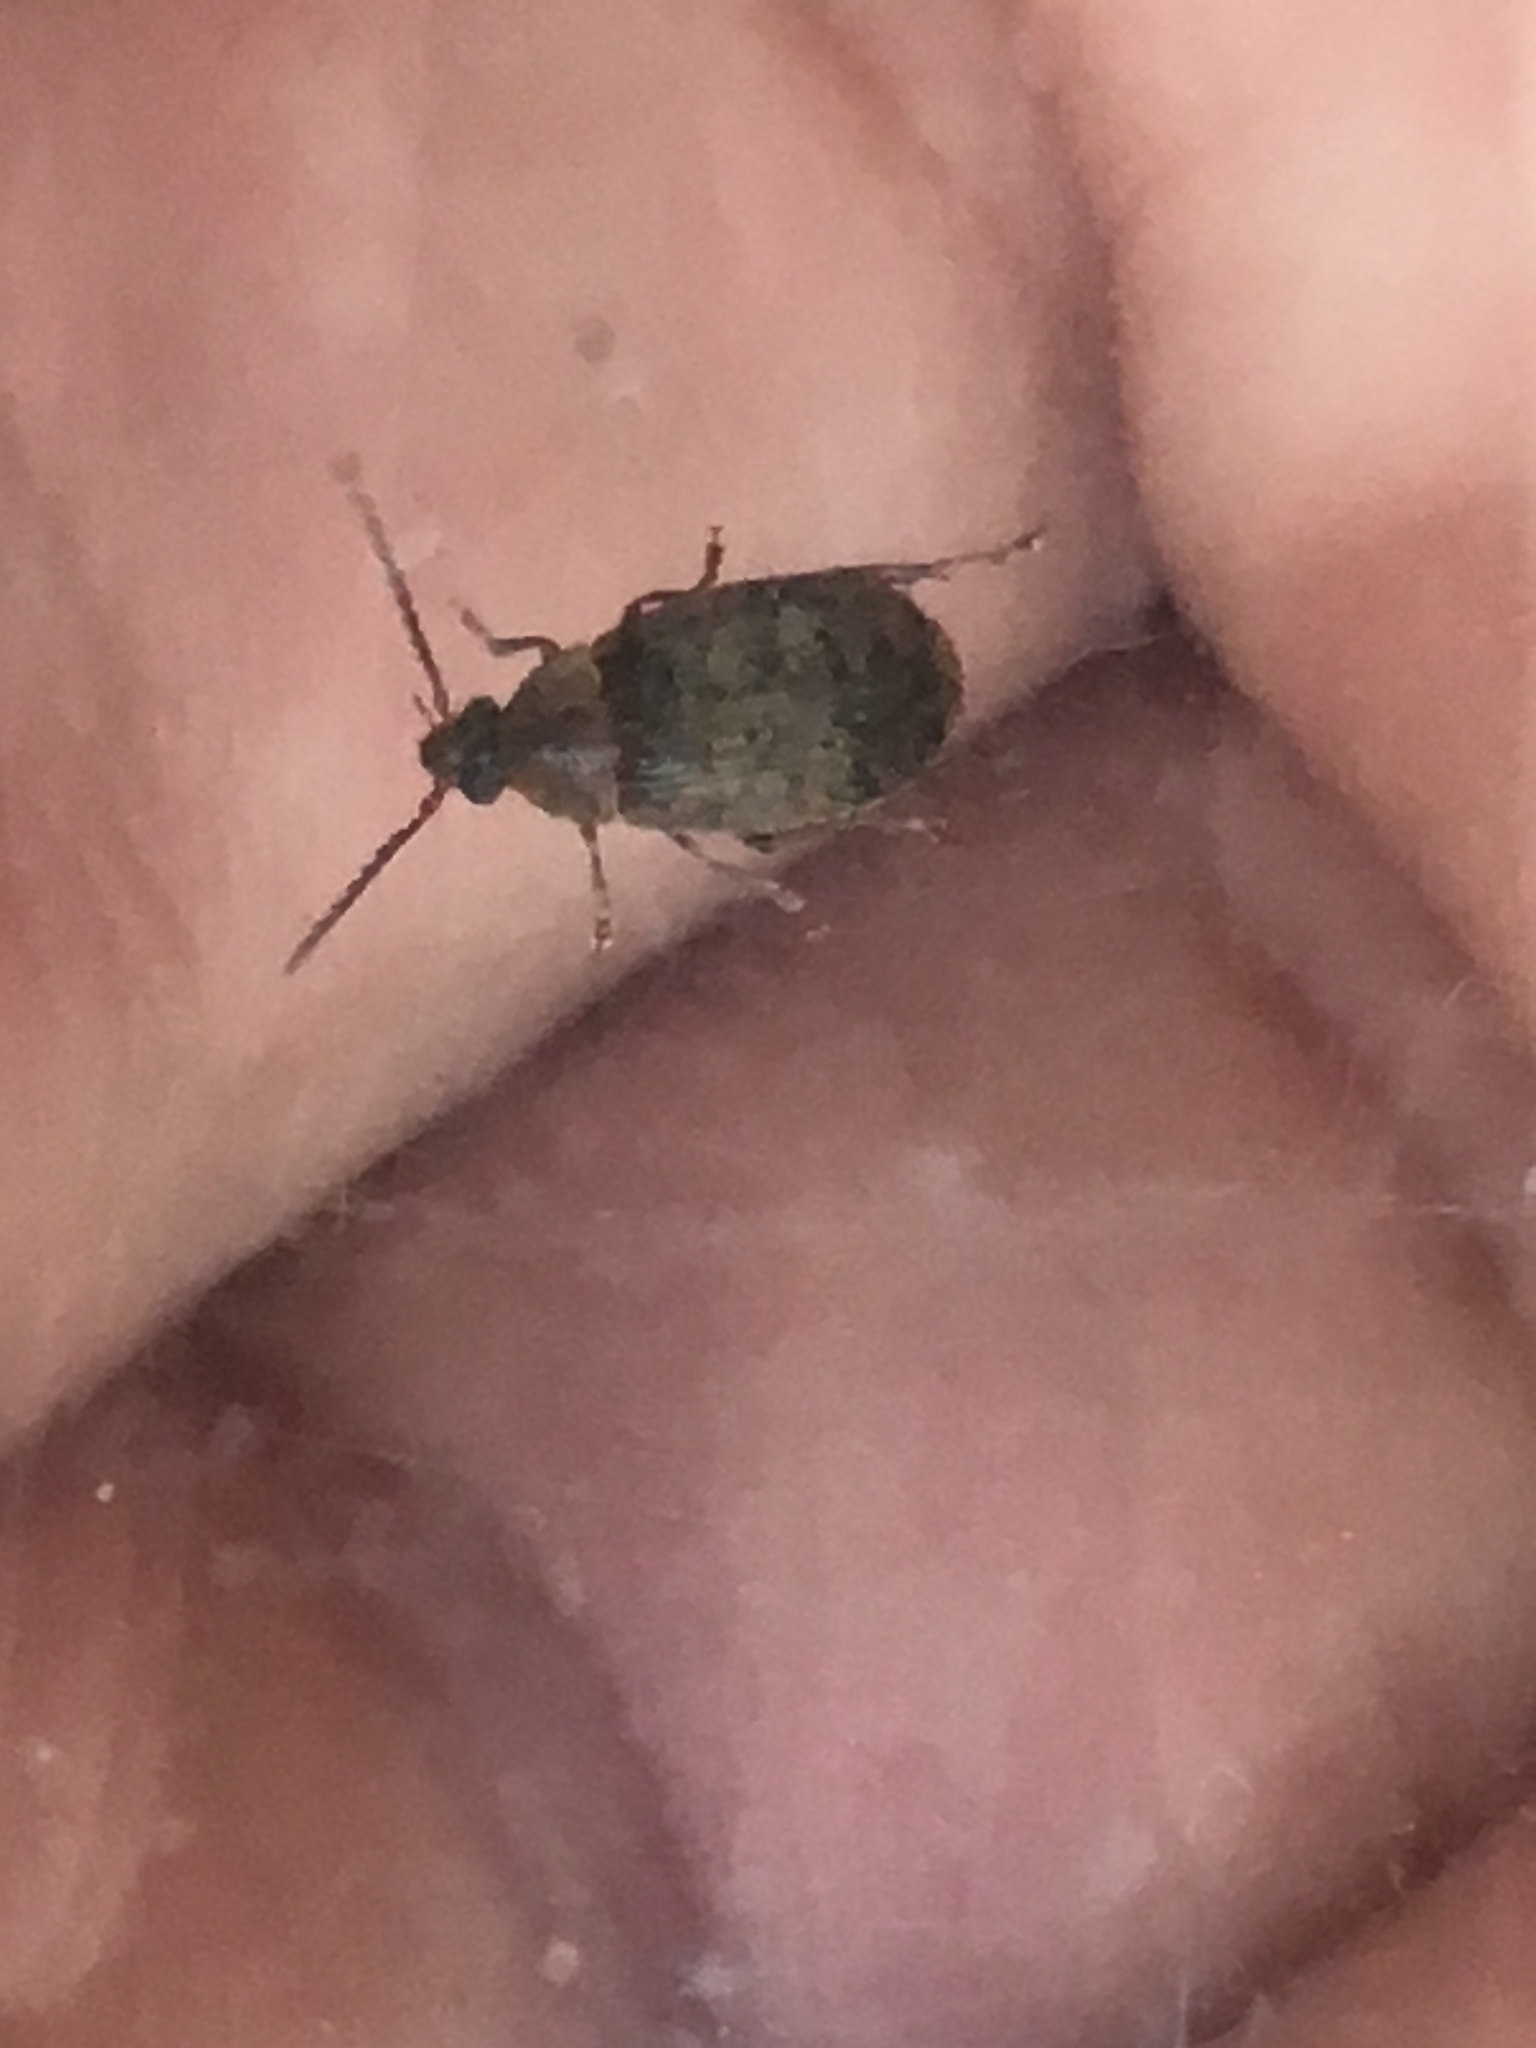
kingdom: Animalia
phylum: Arthropoda
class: Insecta
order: Coleoptera
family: Chrysomelidae
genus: Amblycerus
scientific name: Amblycerus robiniae
